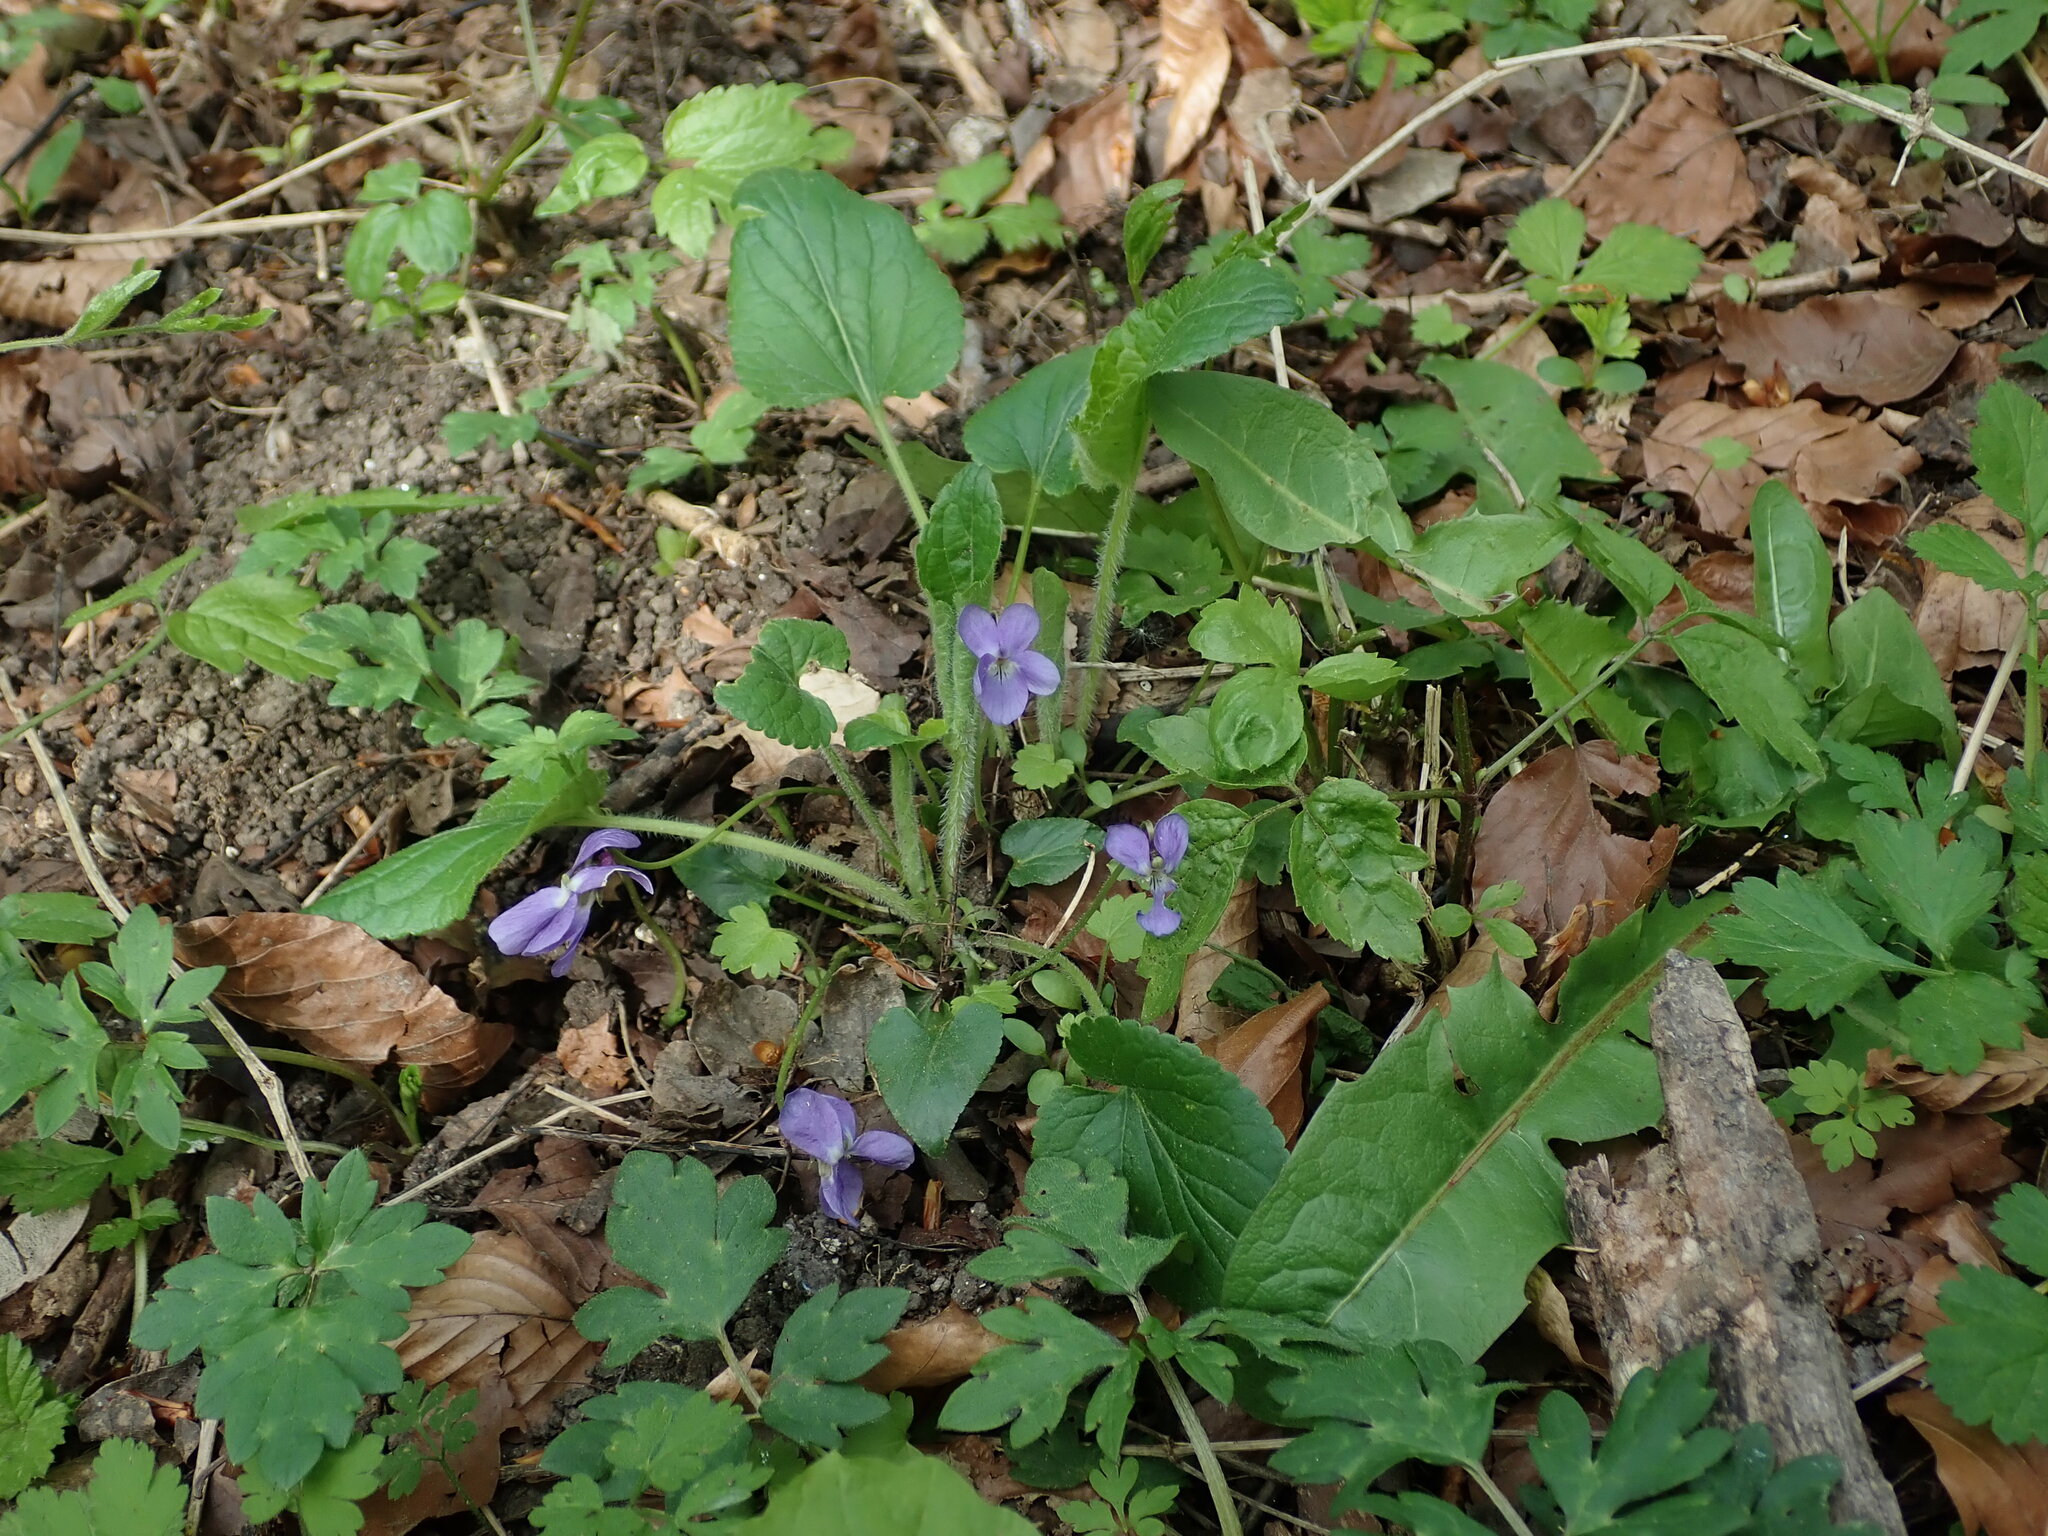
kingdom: Plantae
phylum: Tracheophyta
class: Magnoliopsida
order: Malpighiales
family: Violaceae
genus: Viola
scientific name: Viola hirta
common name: Hairy violet
